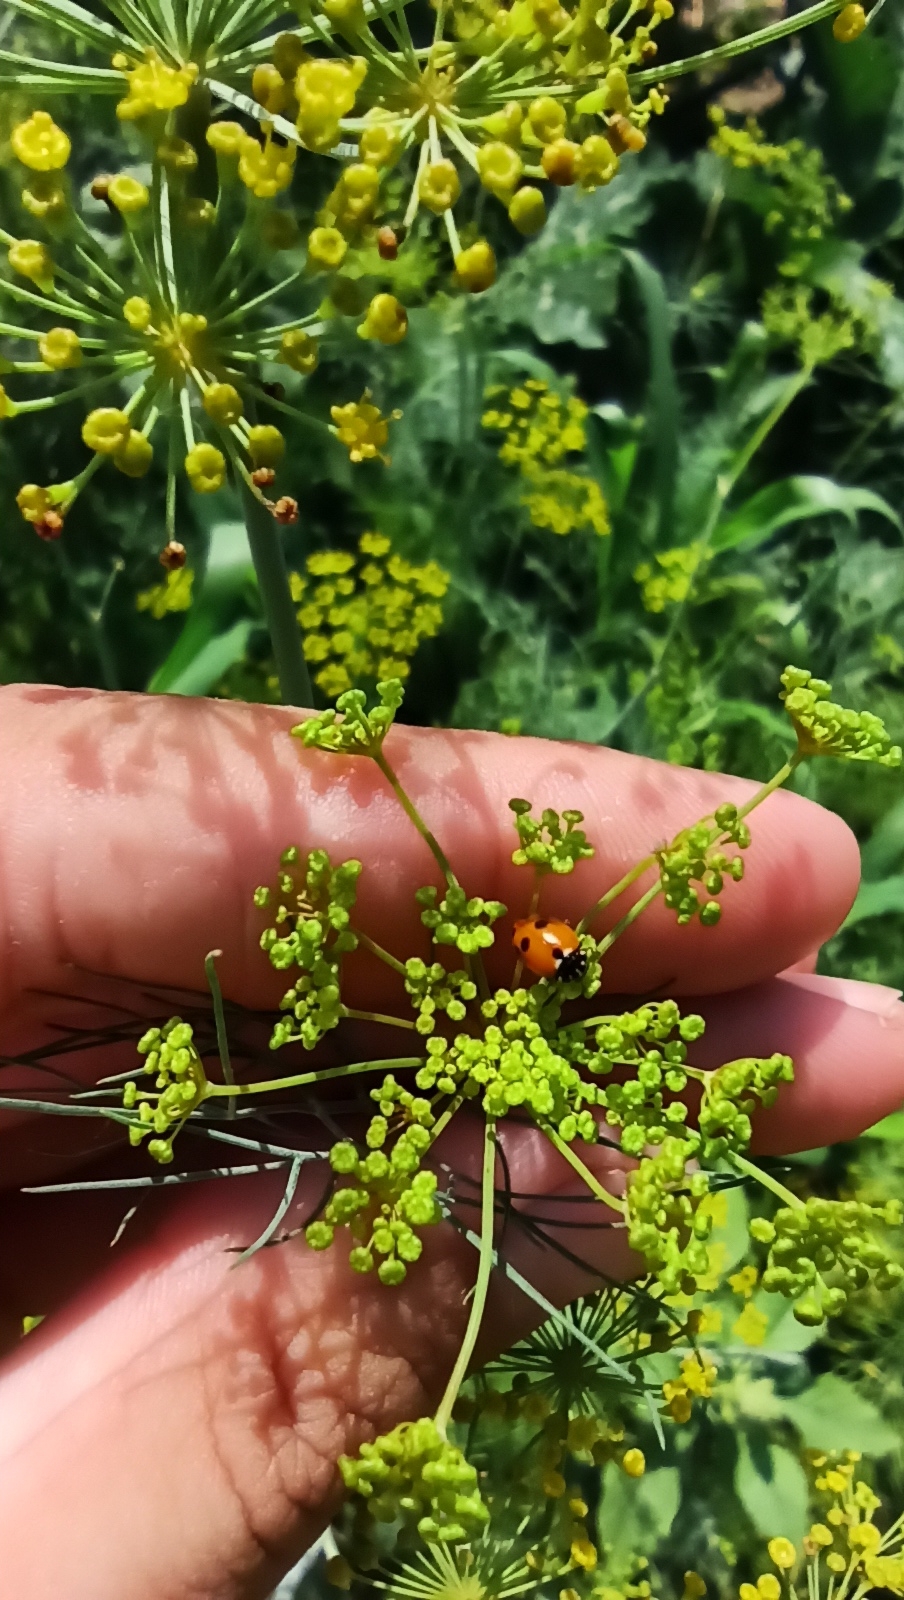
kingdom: Animalia
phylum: Arthropoda
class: Insecta
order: Coleoptera
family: Coccinellidae
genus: Hippodamia
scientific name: Hippodamia variegata
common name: Ladybird beetle
